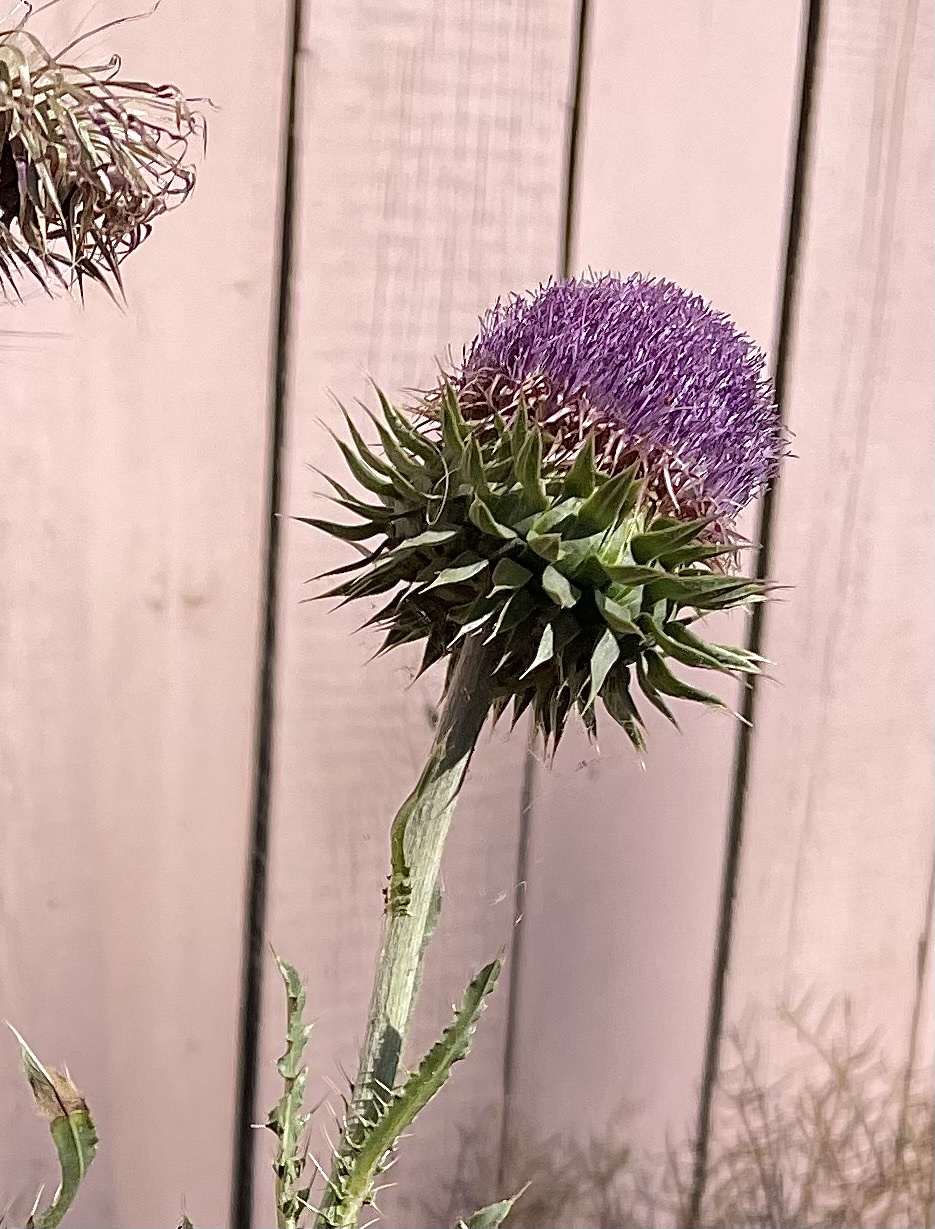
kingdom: Plantae
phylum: Tracheophyta
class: Magnoliopsida
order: Asterales
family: Asteraceae
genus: Carduus
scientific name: Carduus nutans
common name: Musk thistle
